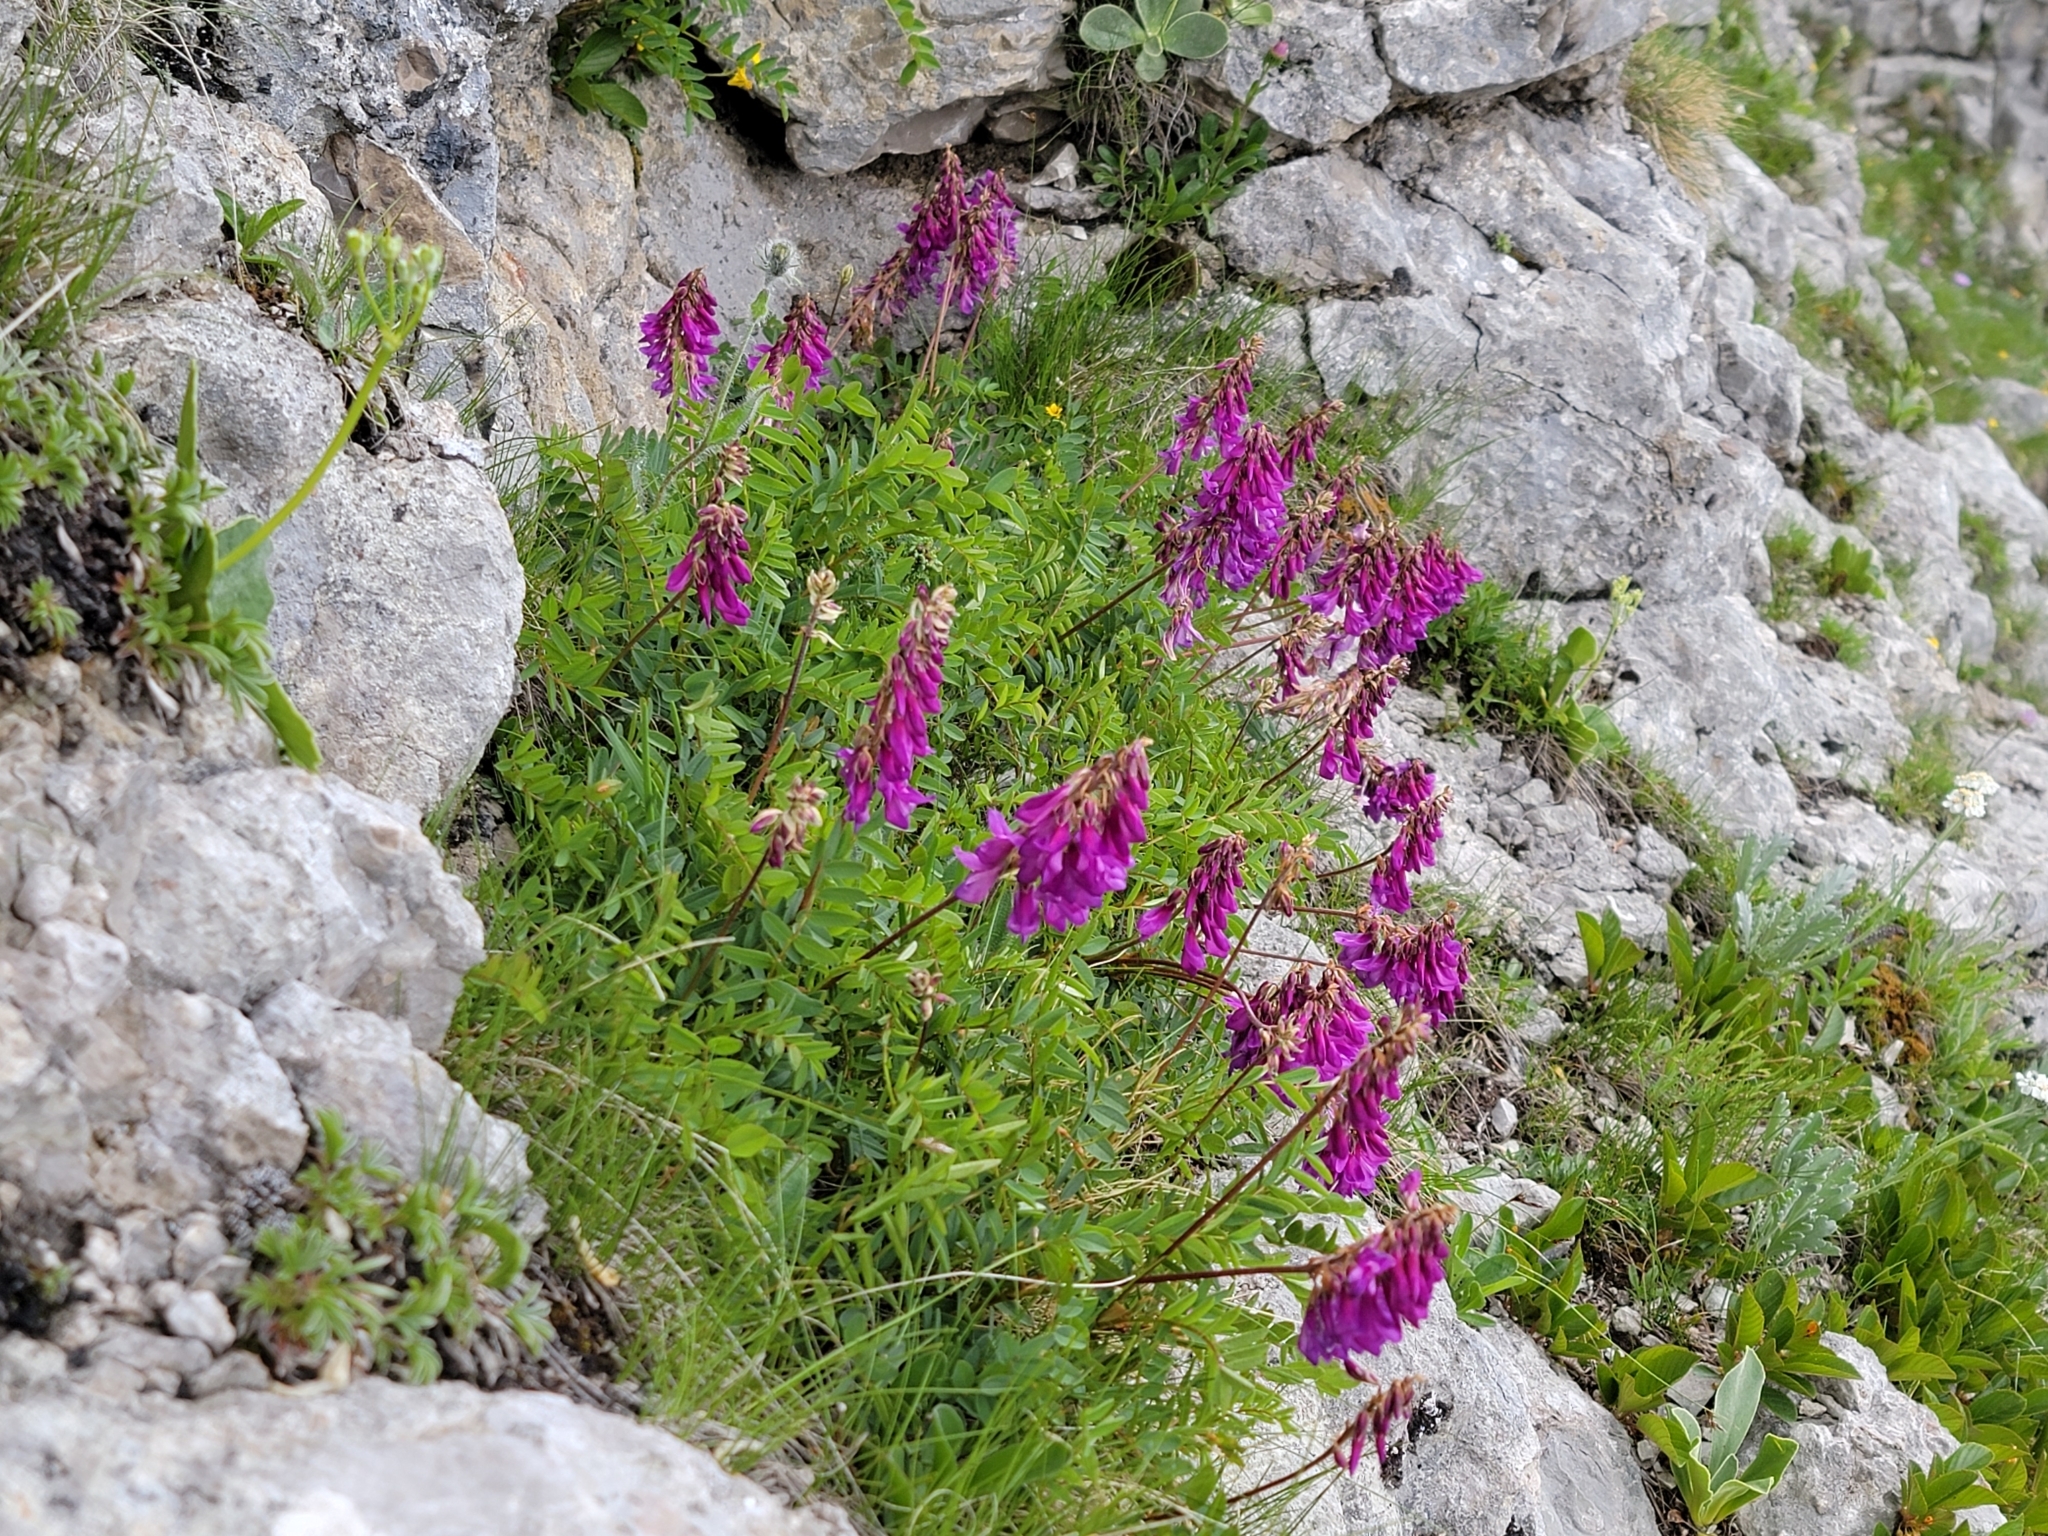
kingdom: Plantae
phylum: Tracheophyta
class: Magnoliopsida
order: Fabales
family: Fabaceae
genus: Hedysarum
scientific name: Hedysarum hedysaroides
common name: Alpine french-honeysuckle
